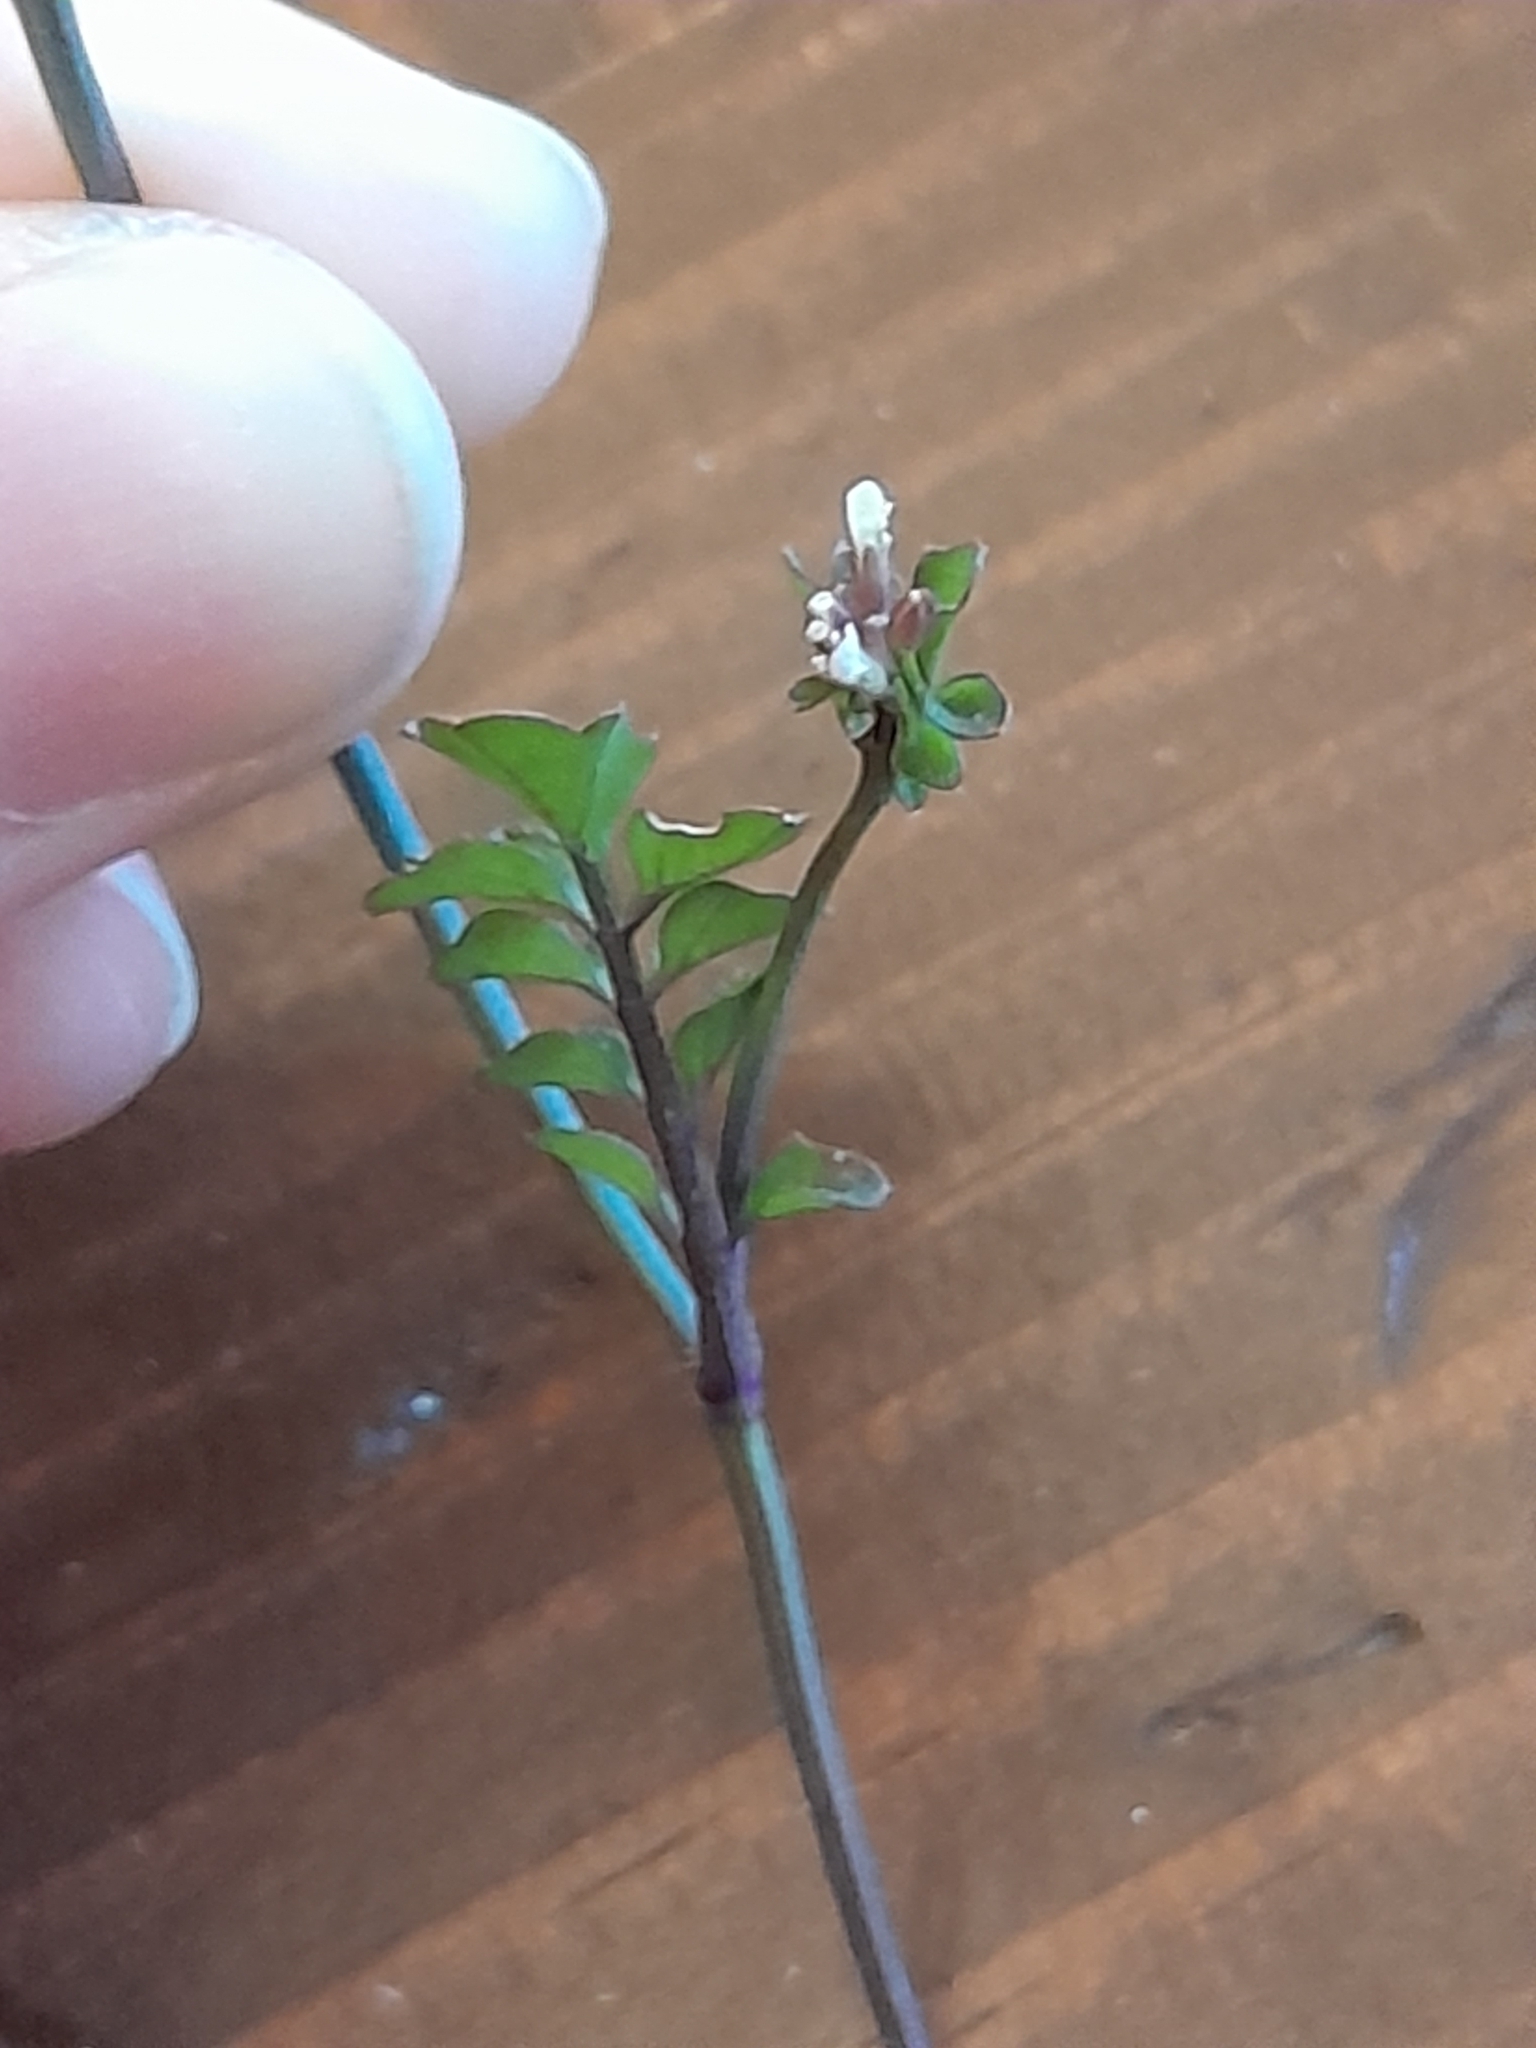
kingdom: Plantae
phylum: Tracheophyta
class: Magnoliopsida
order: Brassicales
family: Brassicaceae
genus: Cardamine
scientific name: Cardamine hirsuta
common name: Hairy bittercress
